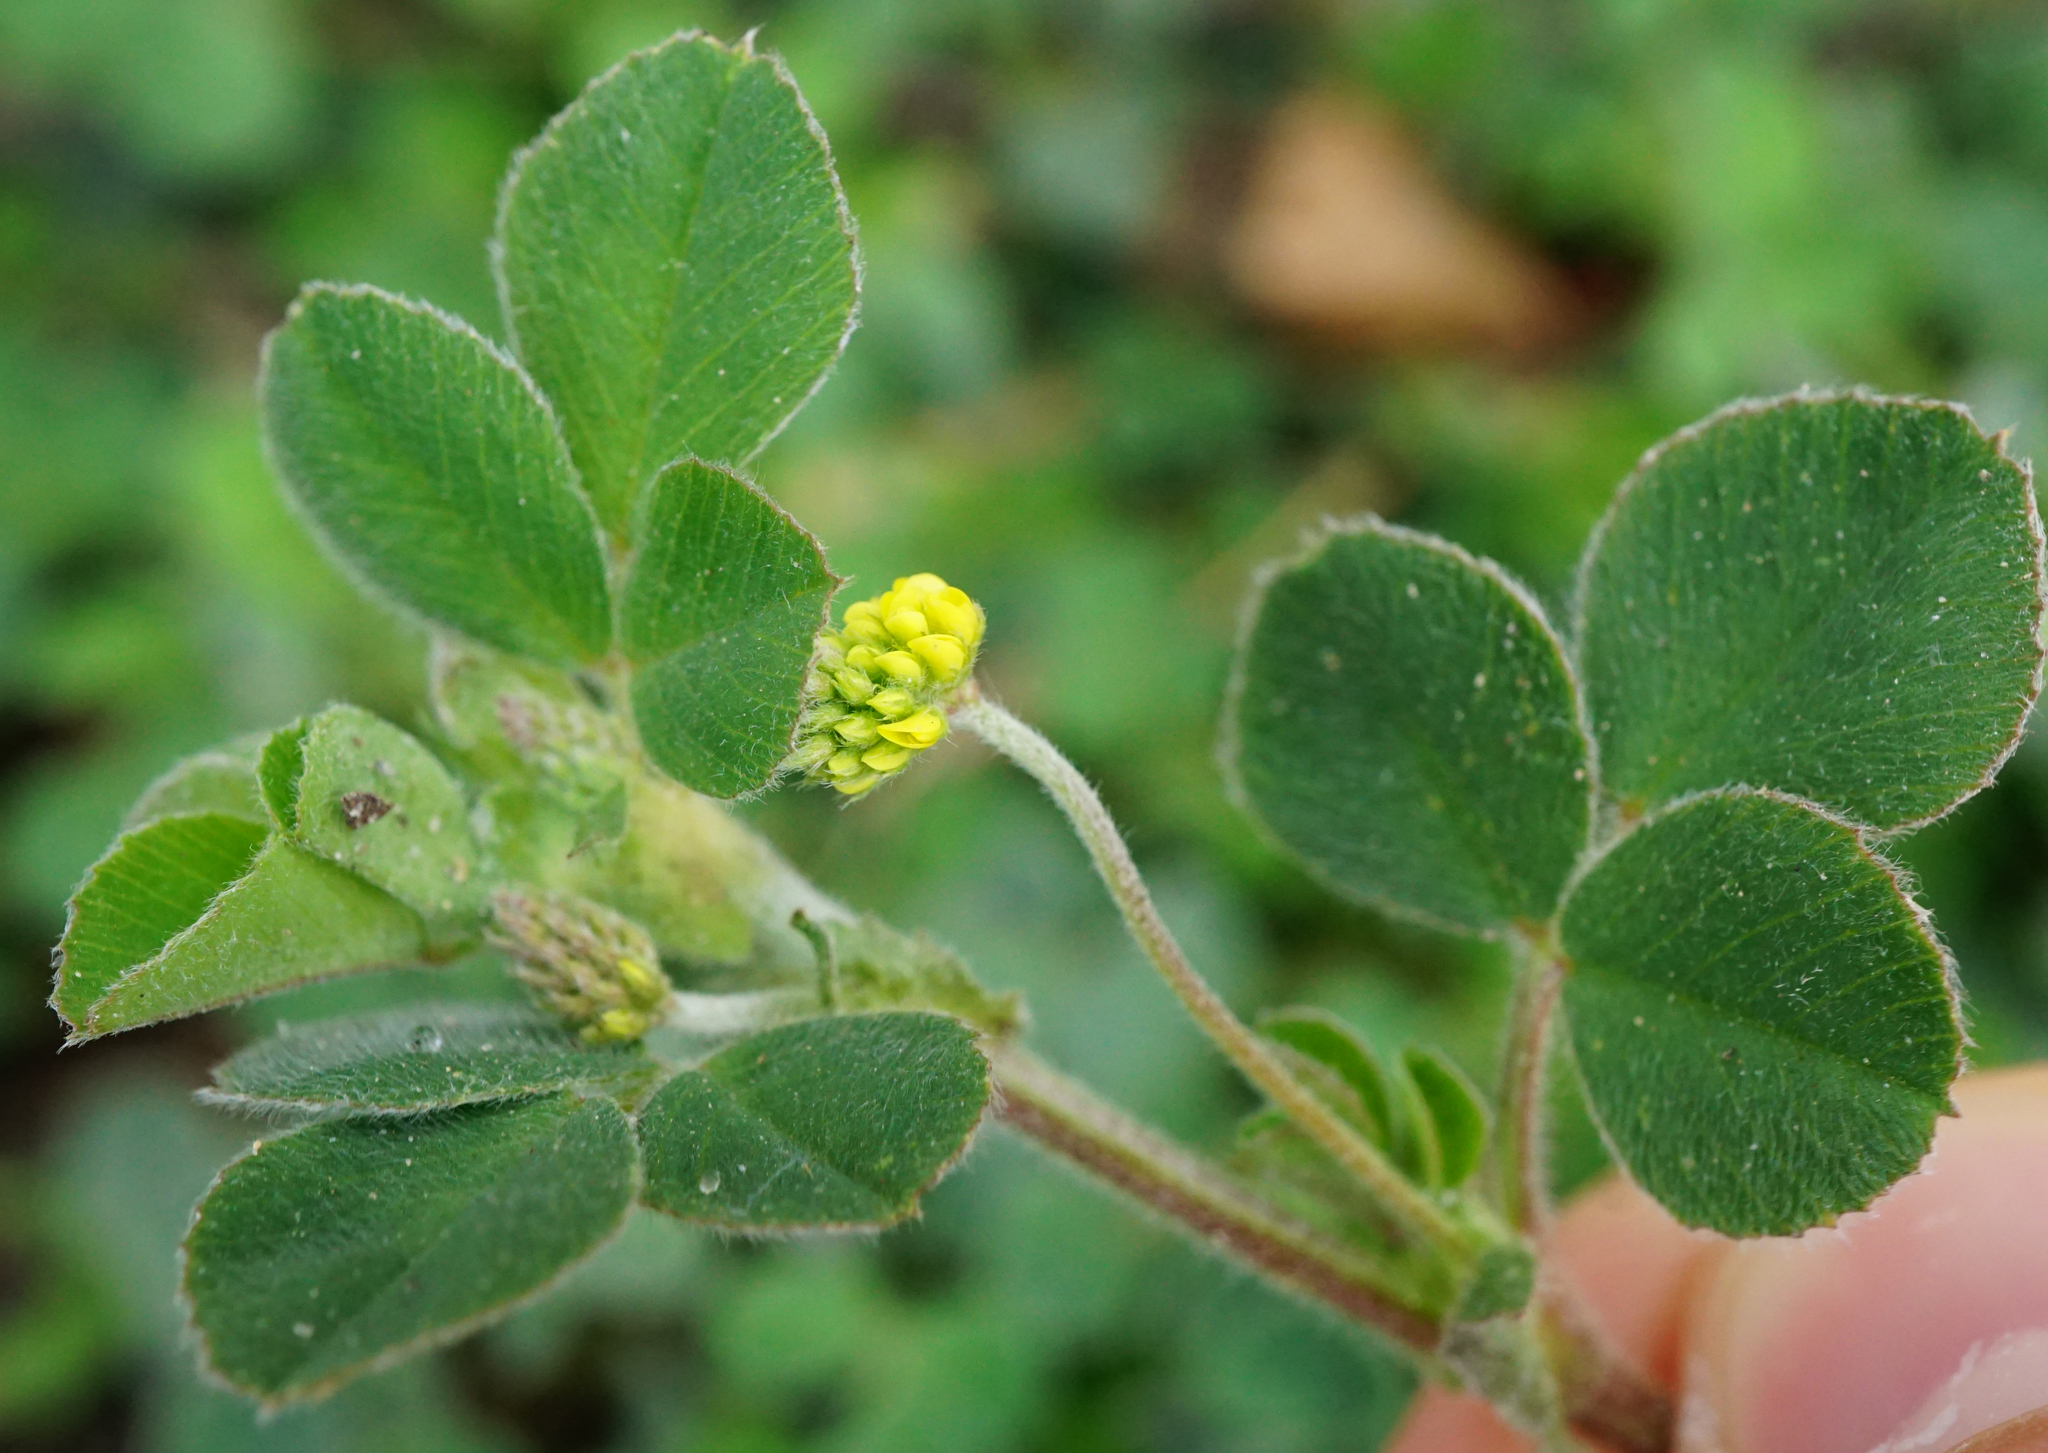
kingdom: Plantae
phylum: Tracheophyta
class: Magnoliopsida
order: Fabales
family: Fabaceae
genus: Medicago
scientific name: Medicago lupulina
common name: Black medick
